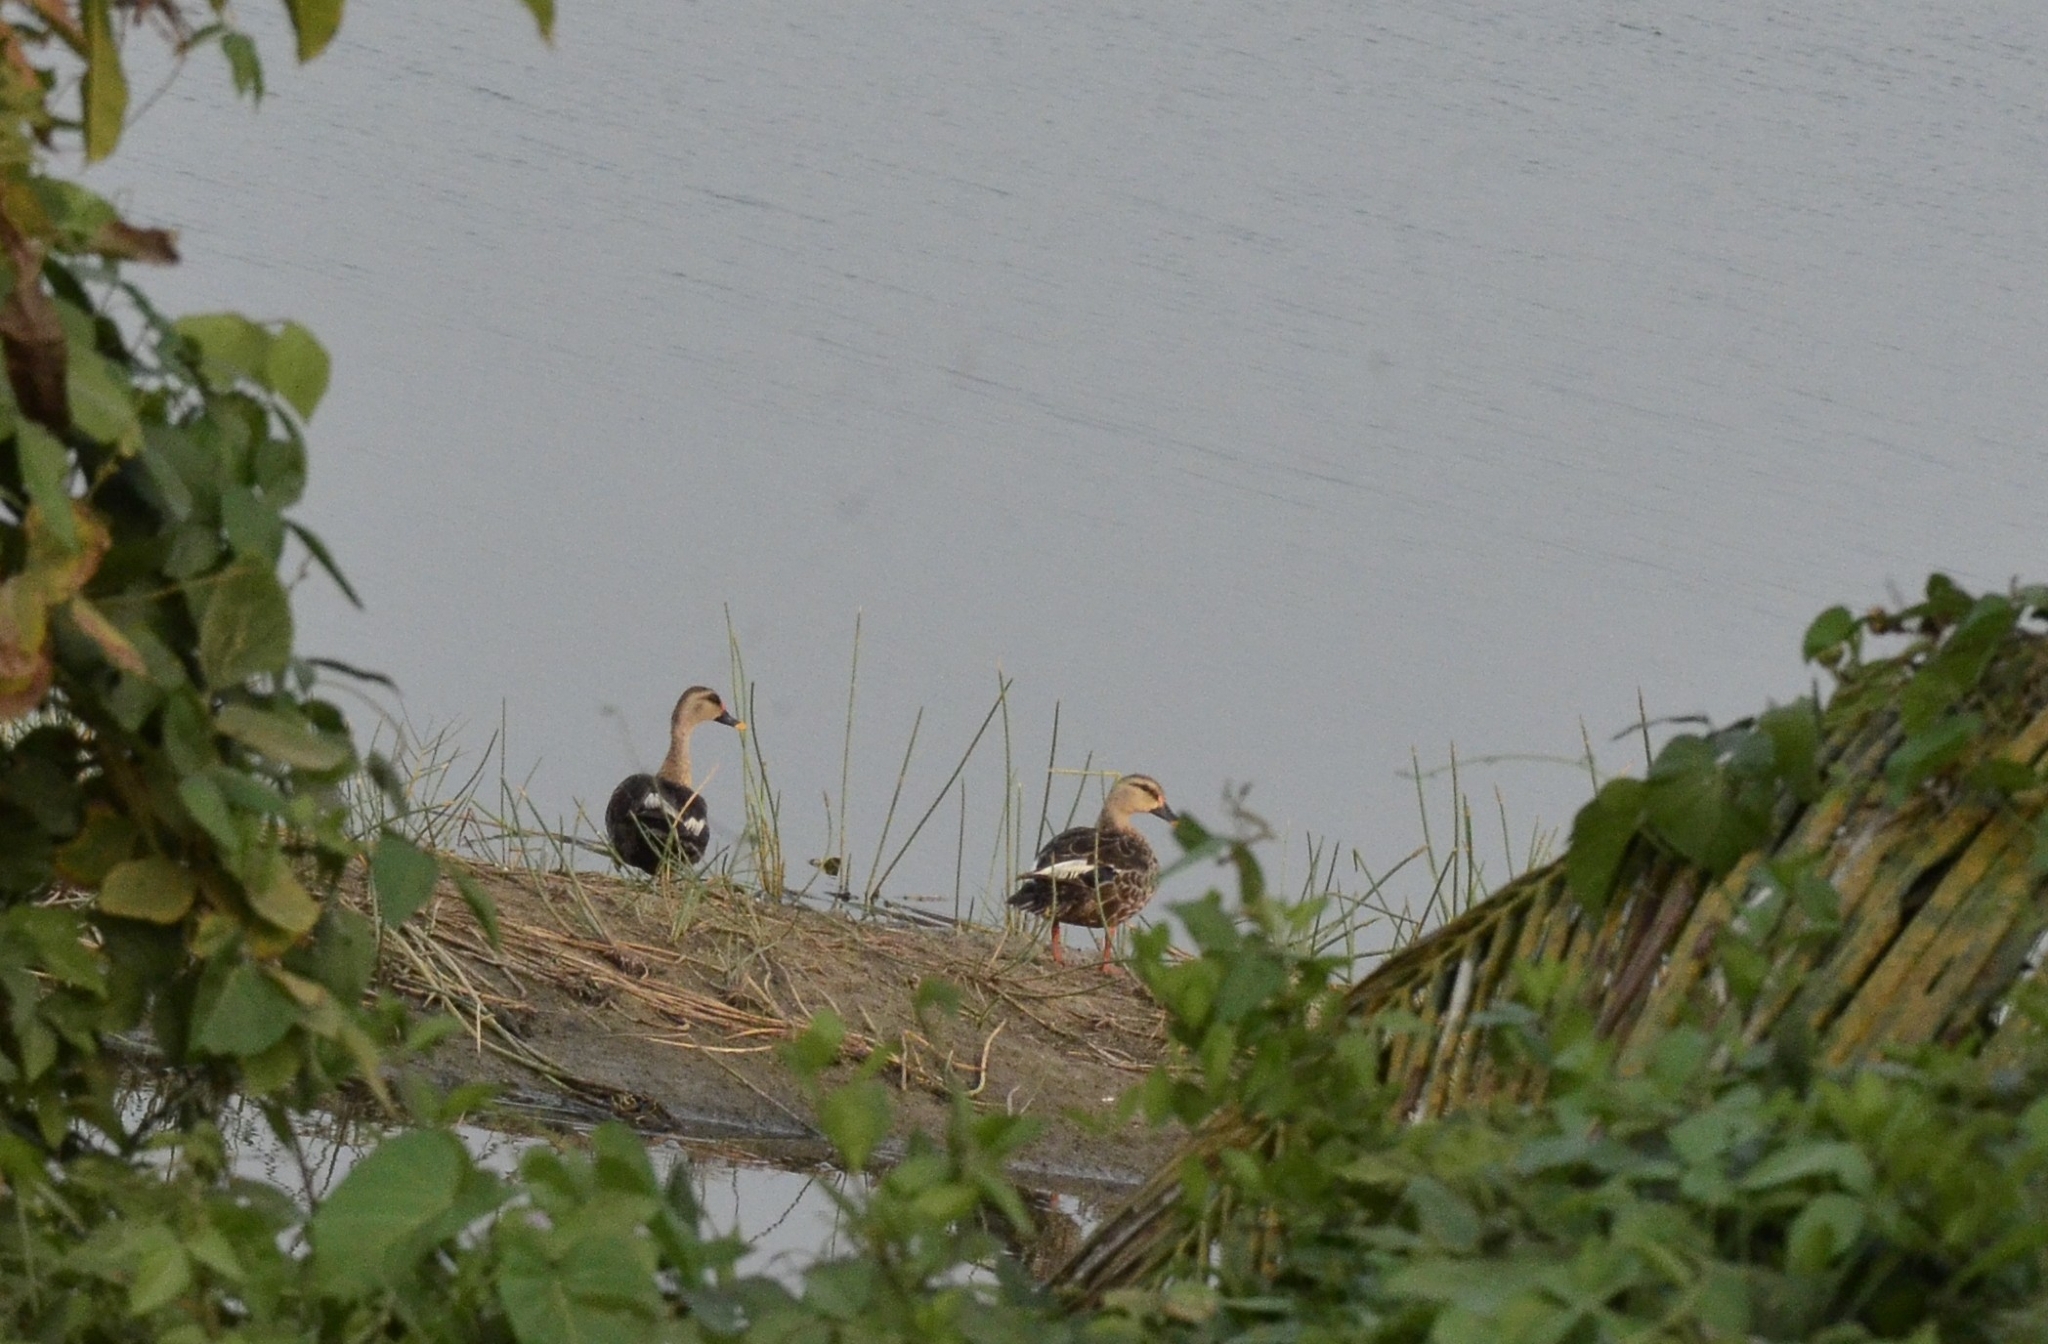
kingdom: Animalia
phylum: Chordata
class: Aves
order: Anseriformes
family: Anatidae
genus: Anas
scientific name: Anas poecilorhyncha
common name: Indian spot-billed duck
